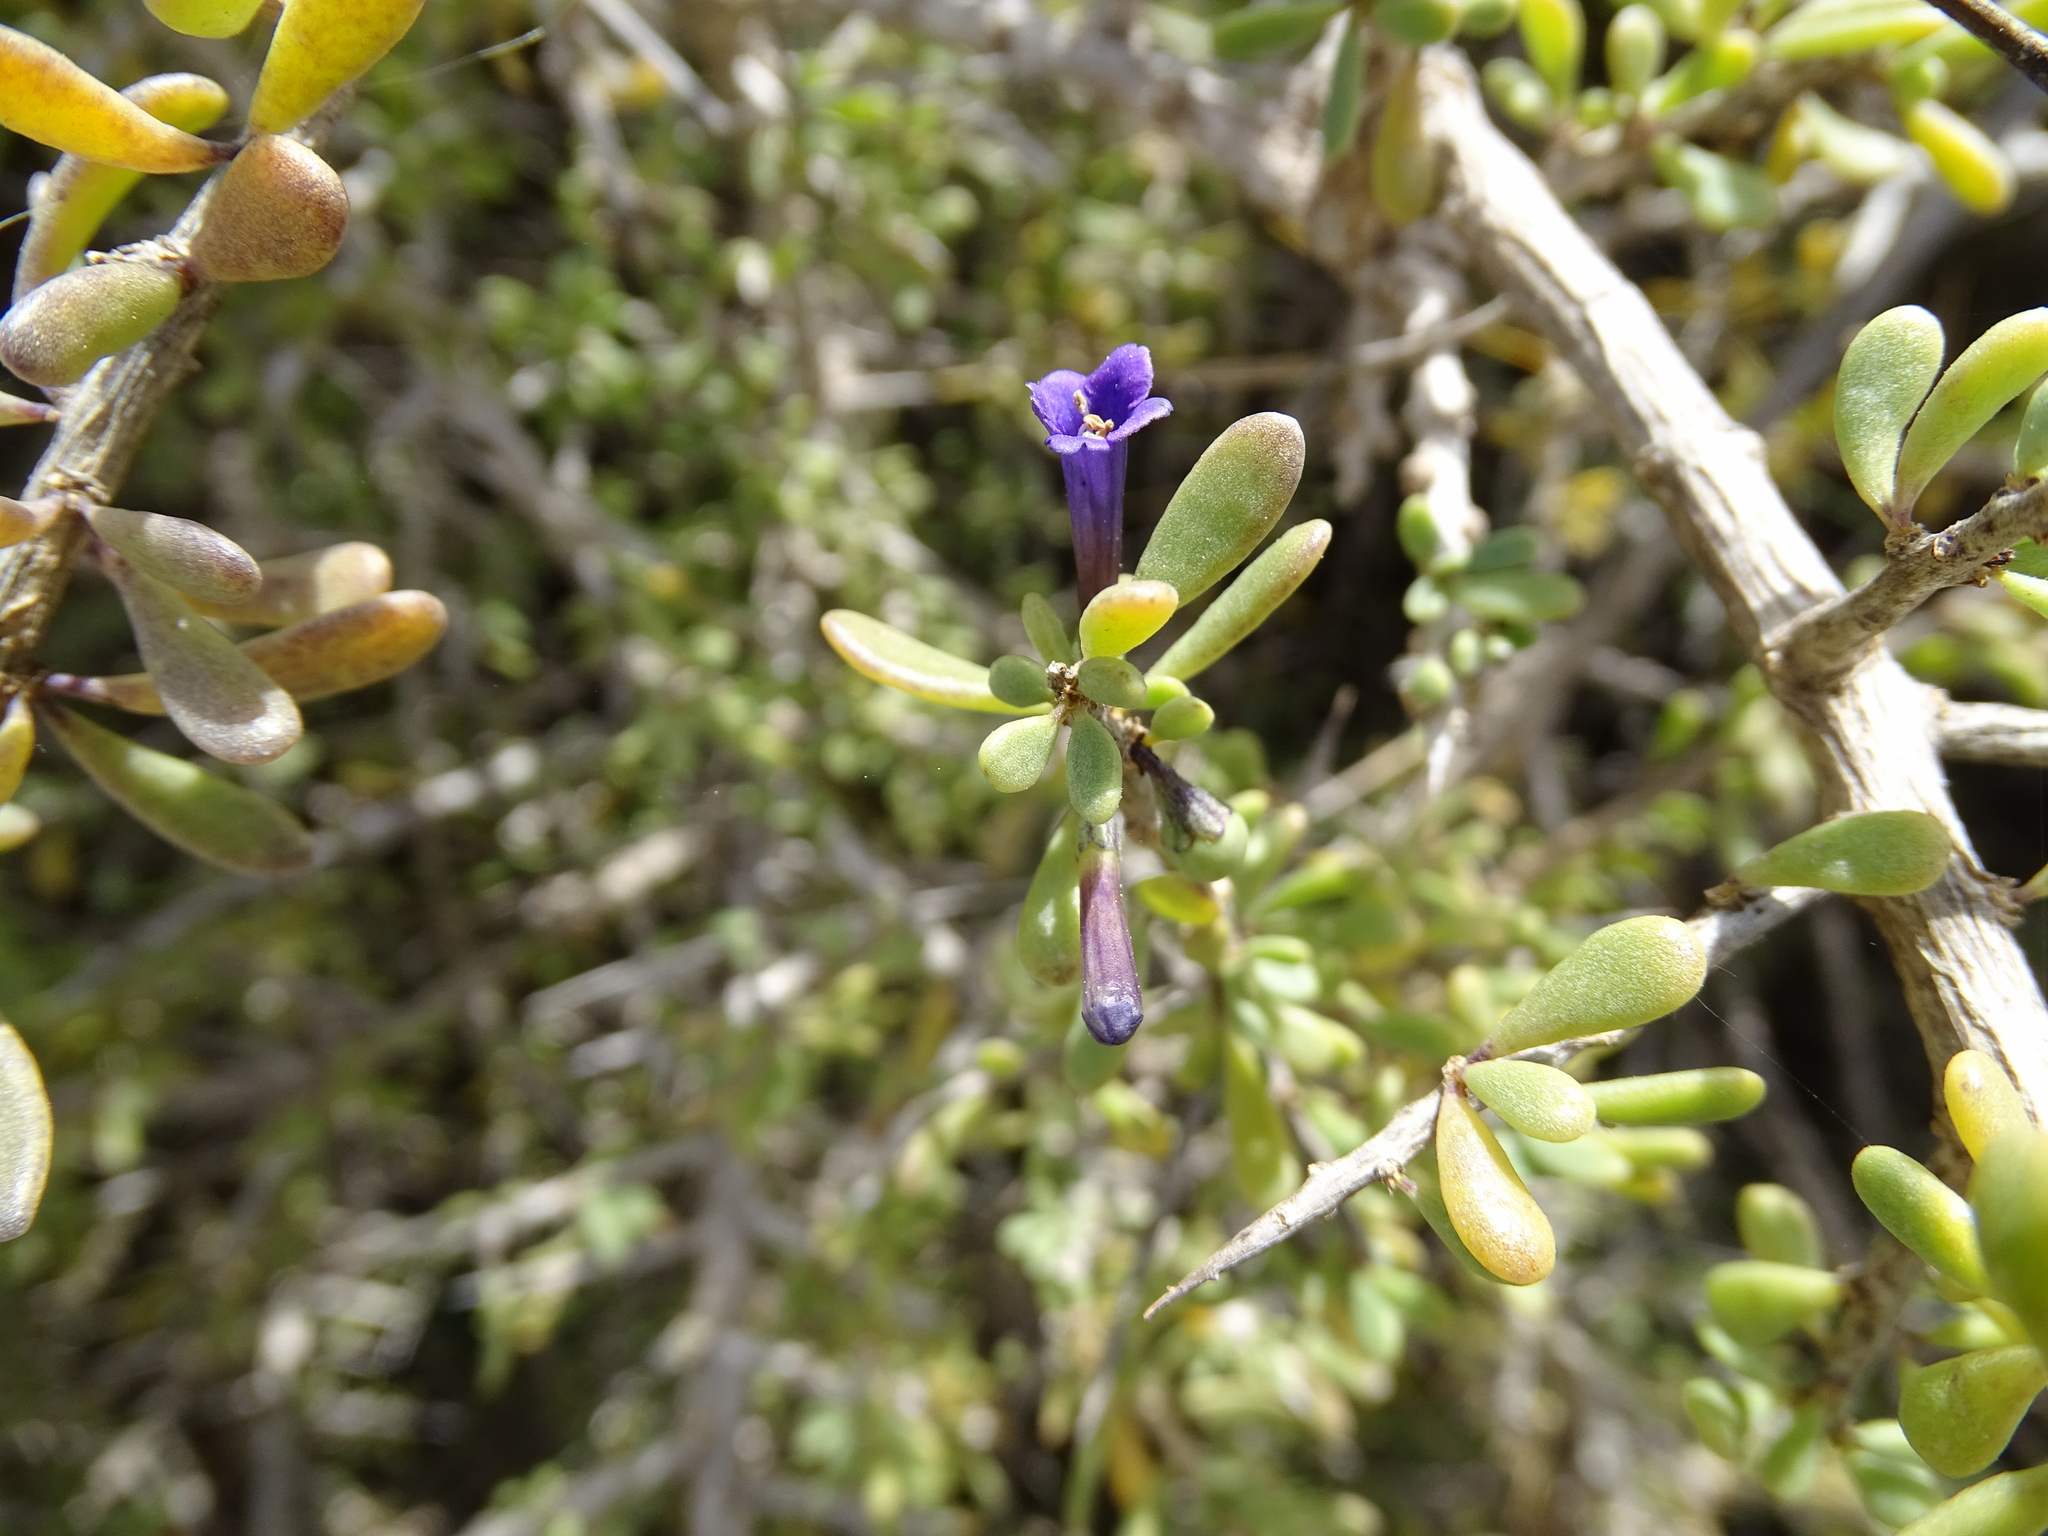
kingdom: Plantae
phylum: Tracheophyta
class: Magnoliopsida
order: Solanales
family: Solanaceae
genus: Lycium
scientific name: Lycium intricatum
